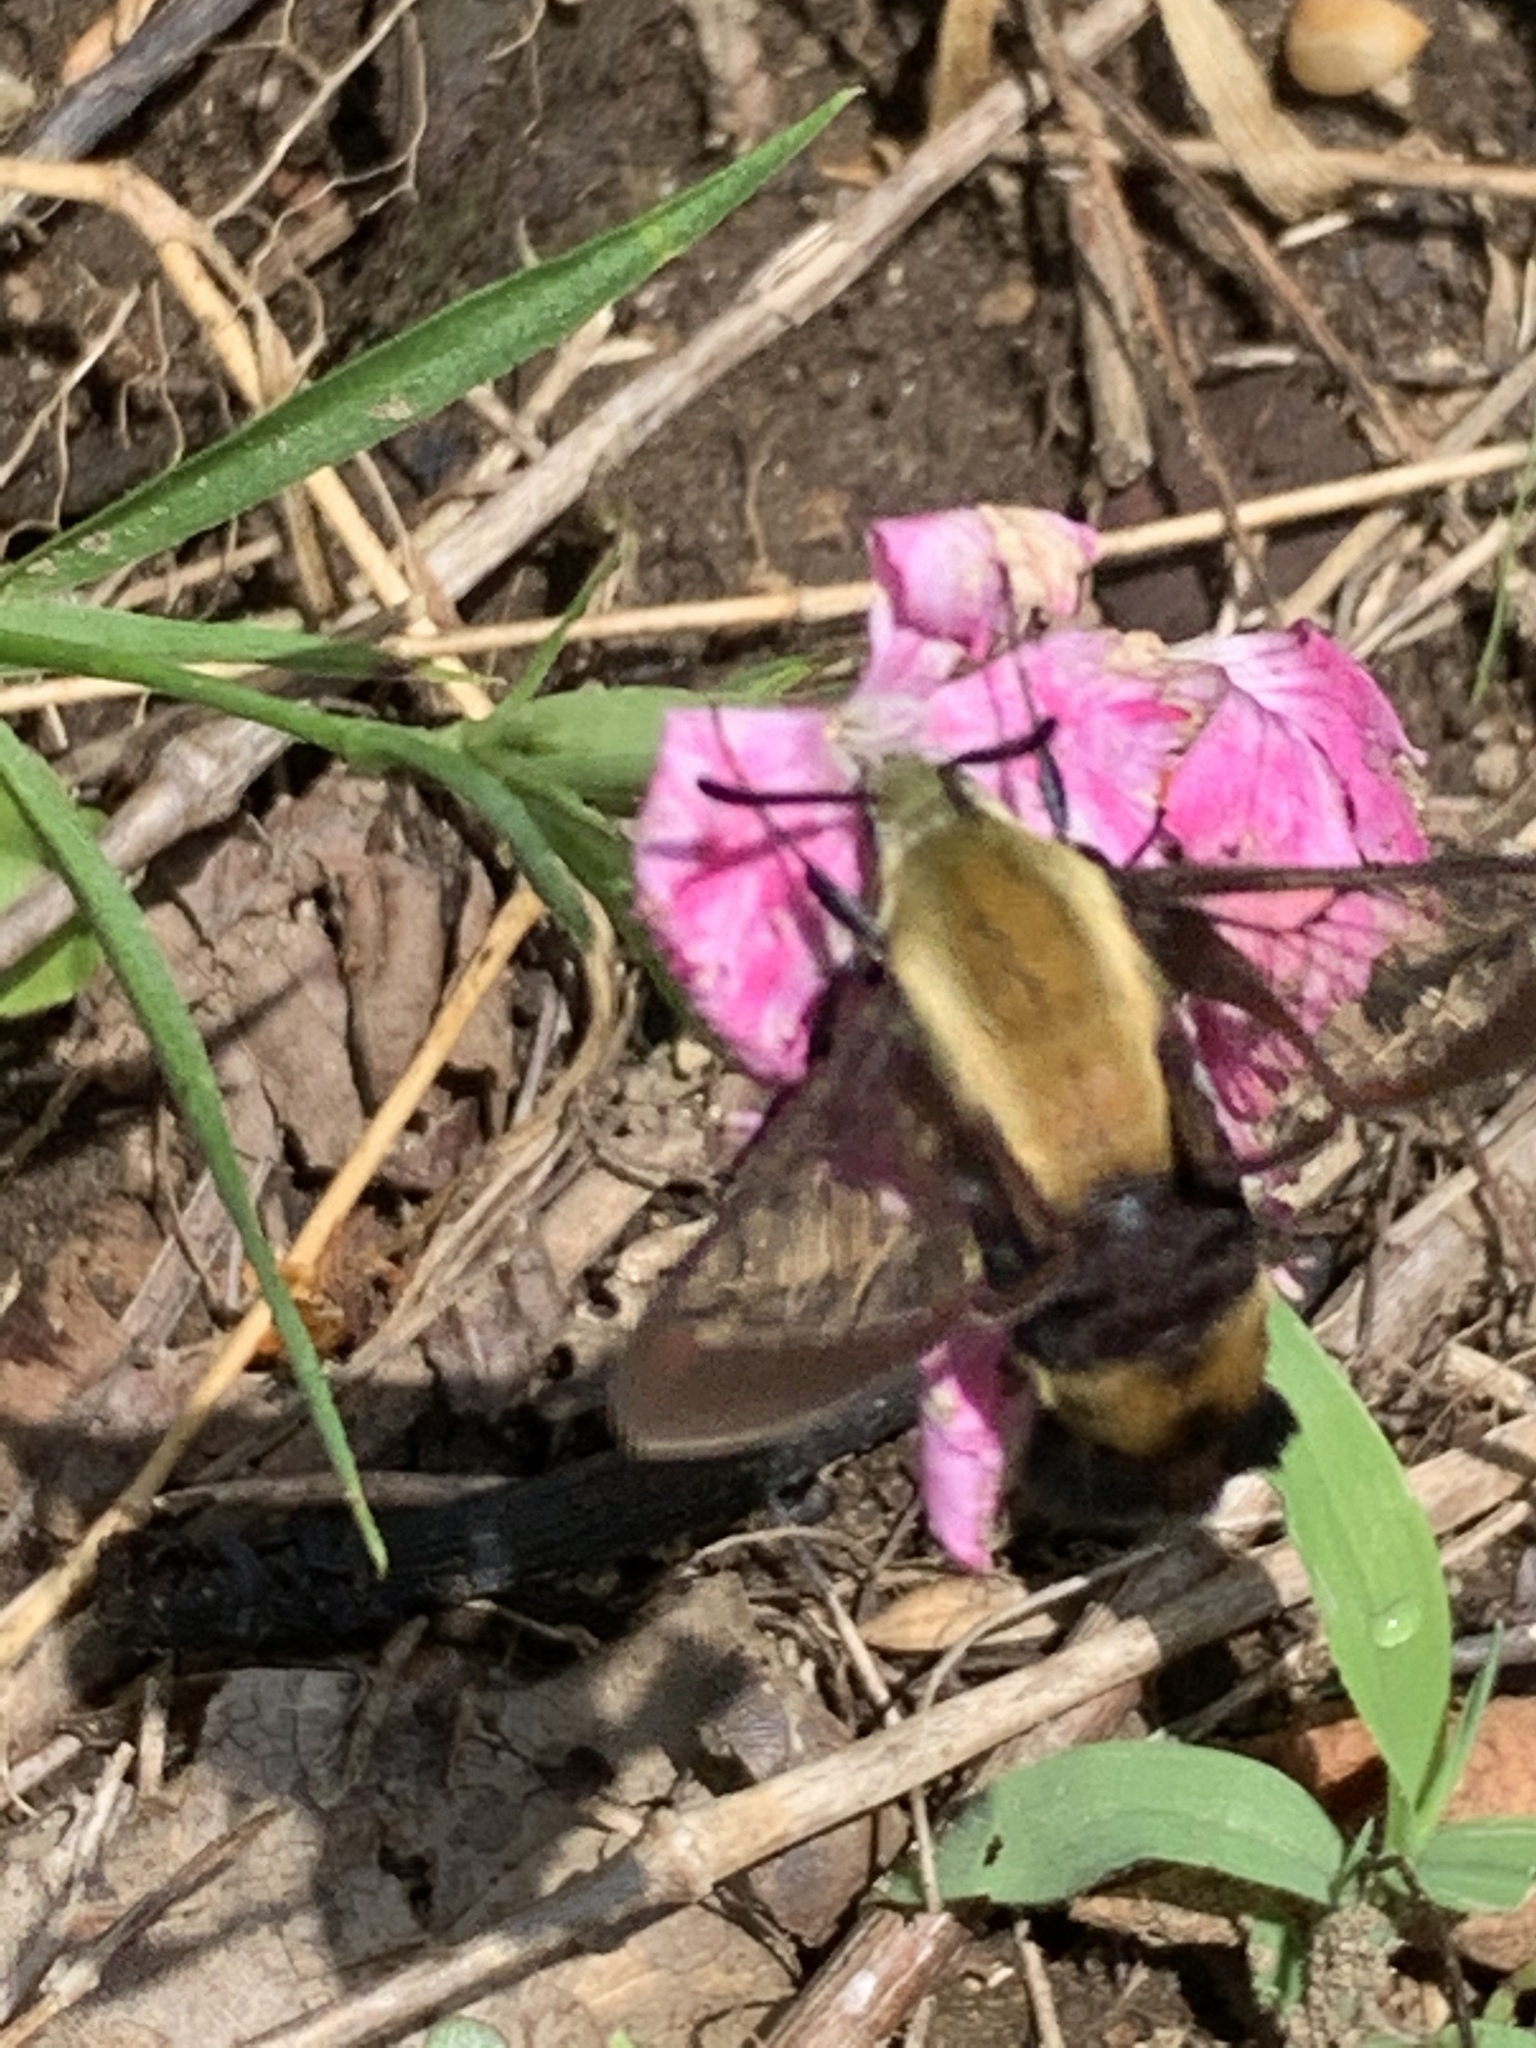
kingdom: Animalia
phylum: Arthropoda
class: Insecta
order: Lepidoptera
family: Sphingidae
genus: Hemaris
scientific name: Hemaris diffinis
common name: Bumblebee moth
